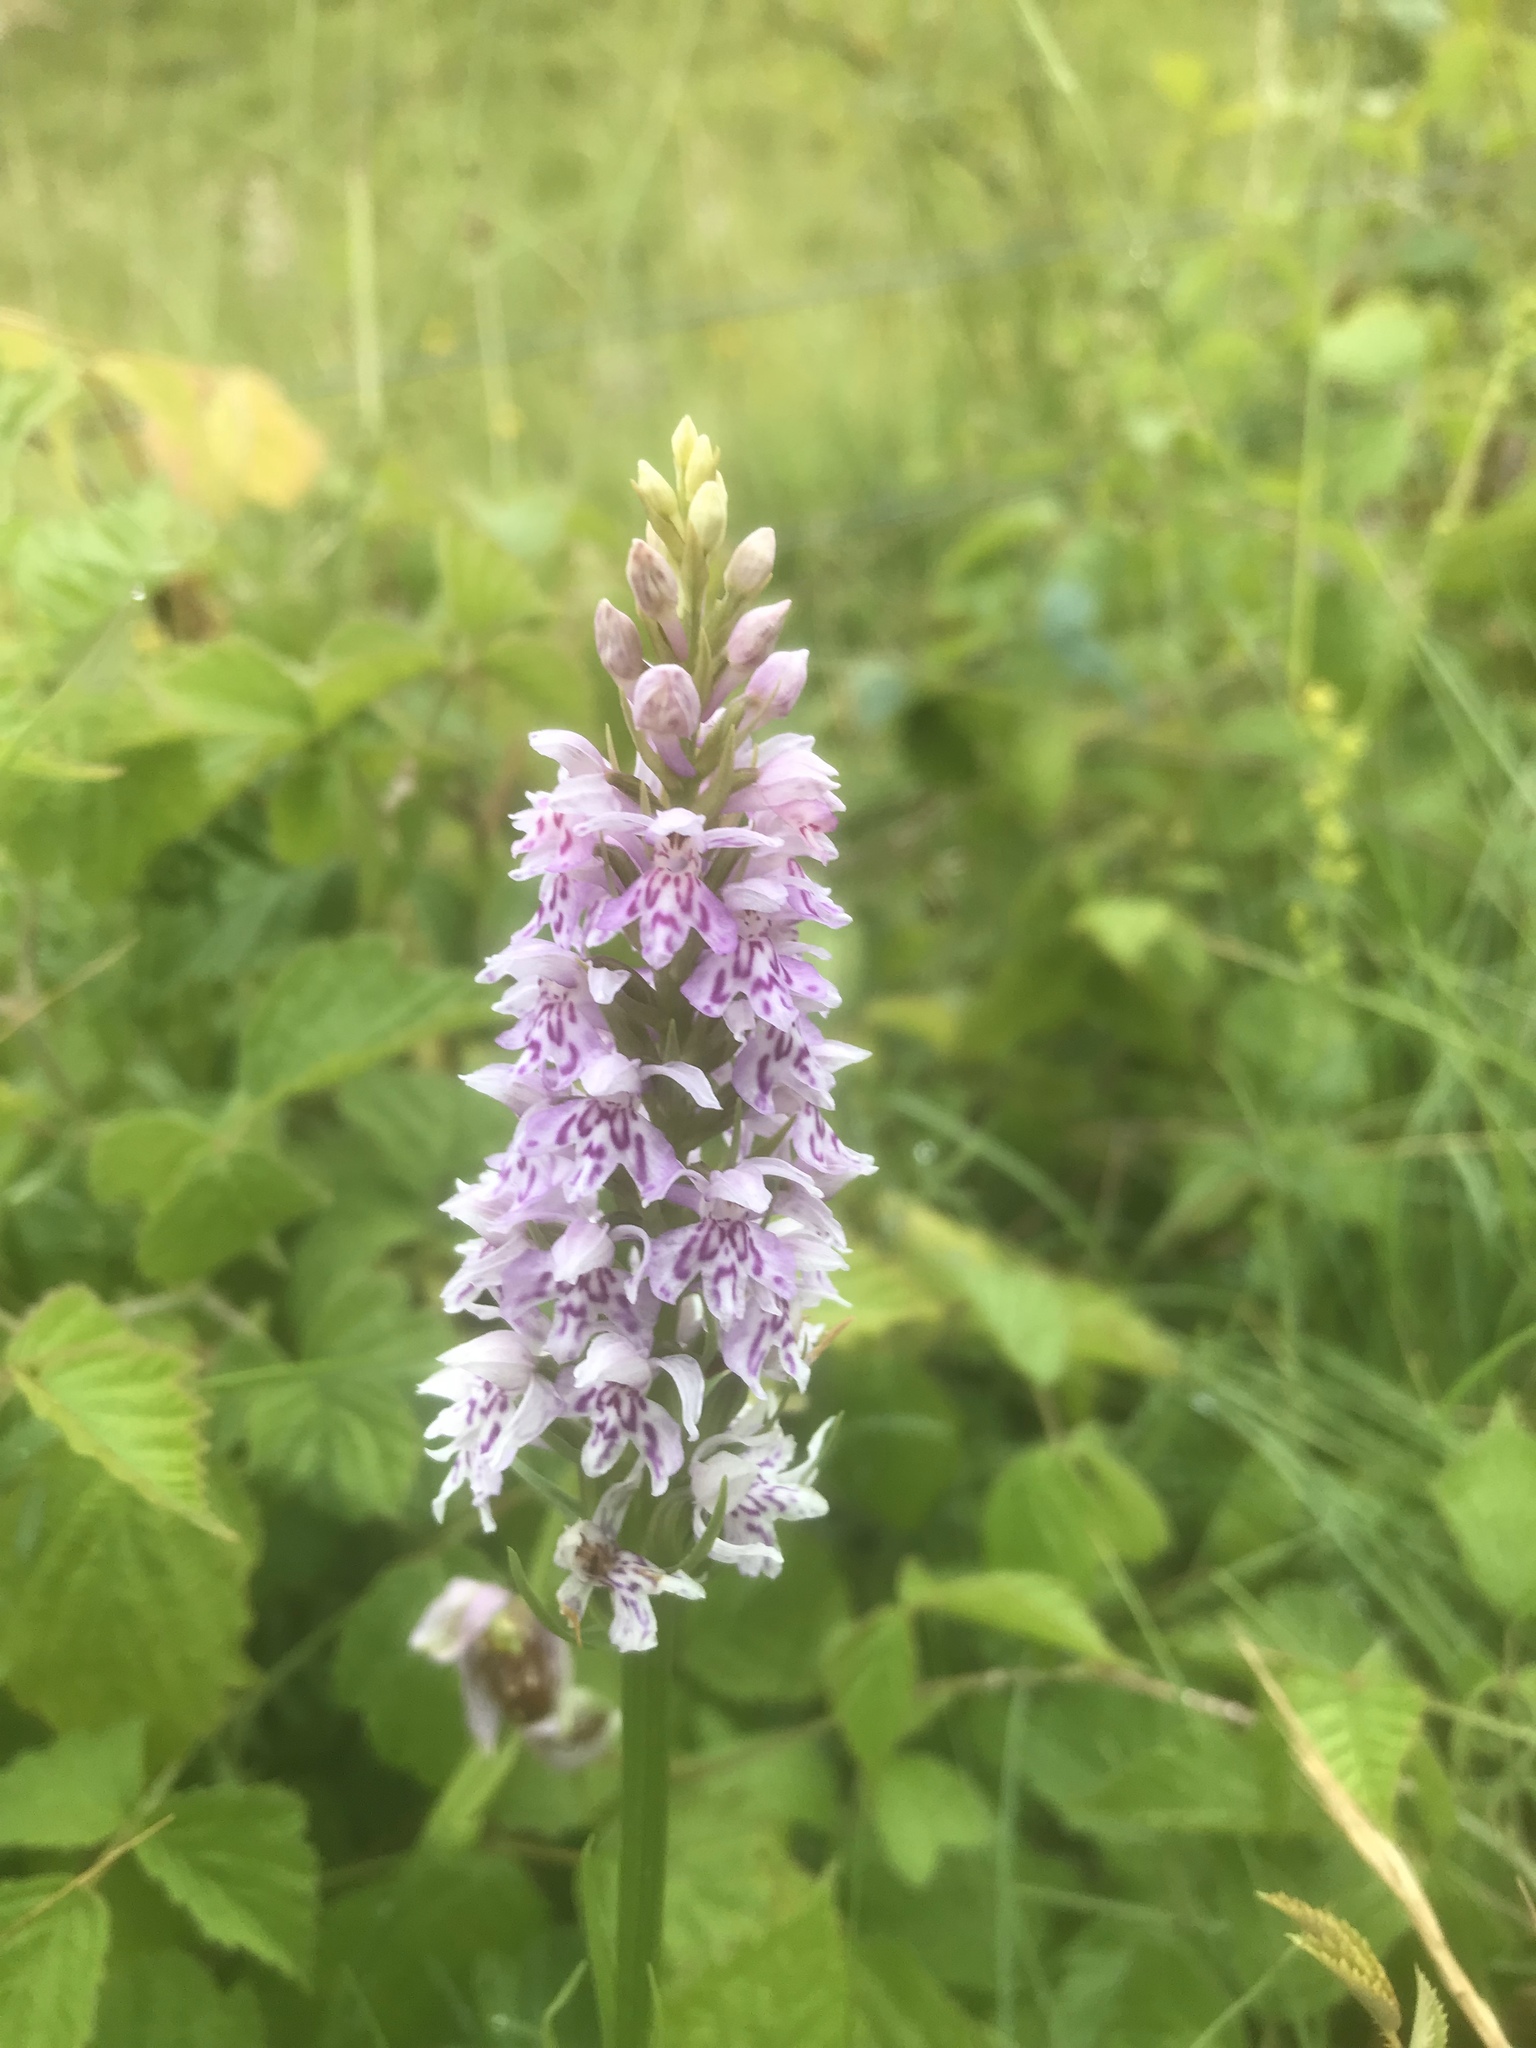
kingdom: Plantae
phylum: Tracheophyta
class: Liliopsida
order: Asparagales
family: Orchidaceae
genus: Dactylorhiza
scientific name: Dactylorhiza maculata
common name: Heath spotted-orchid
